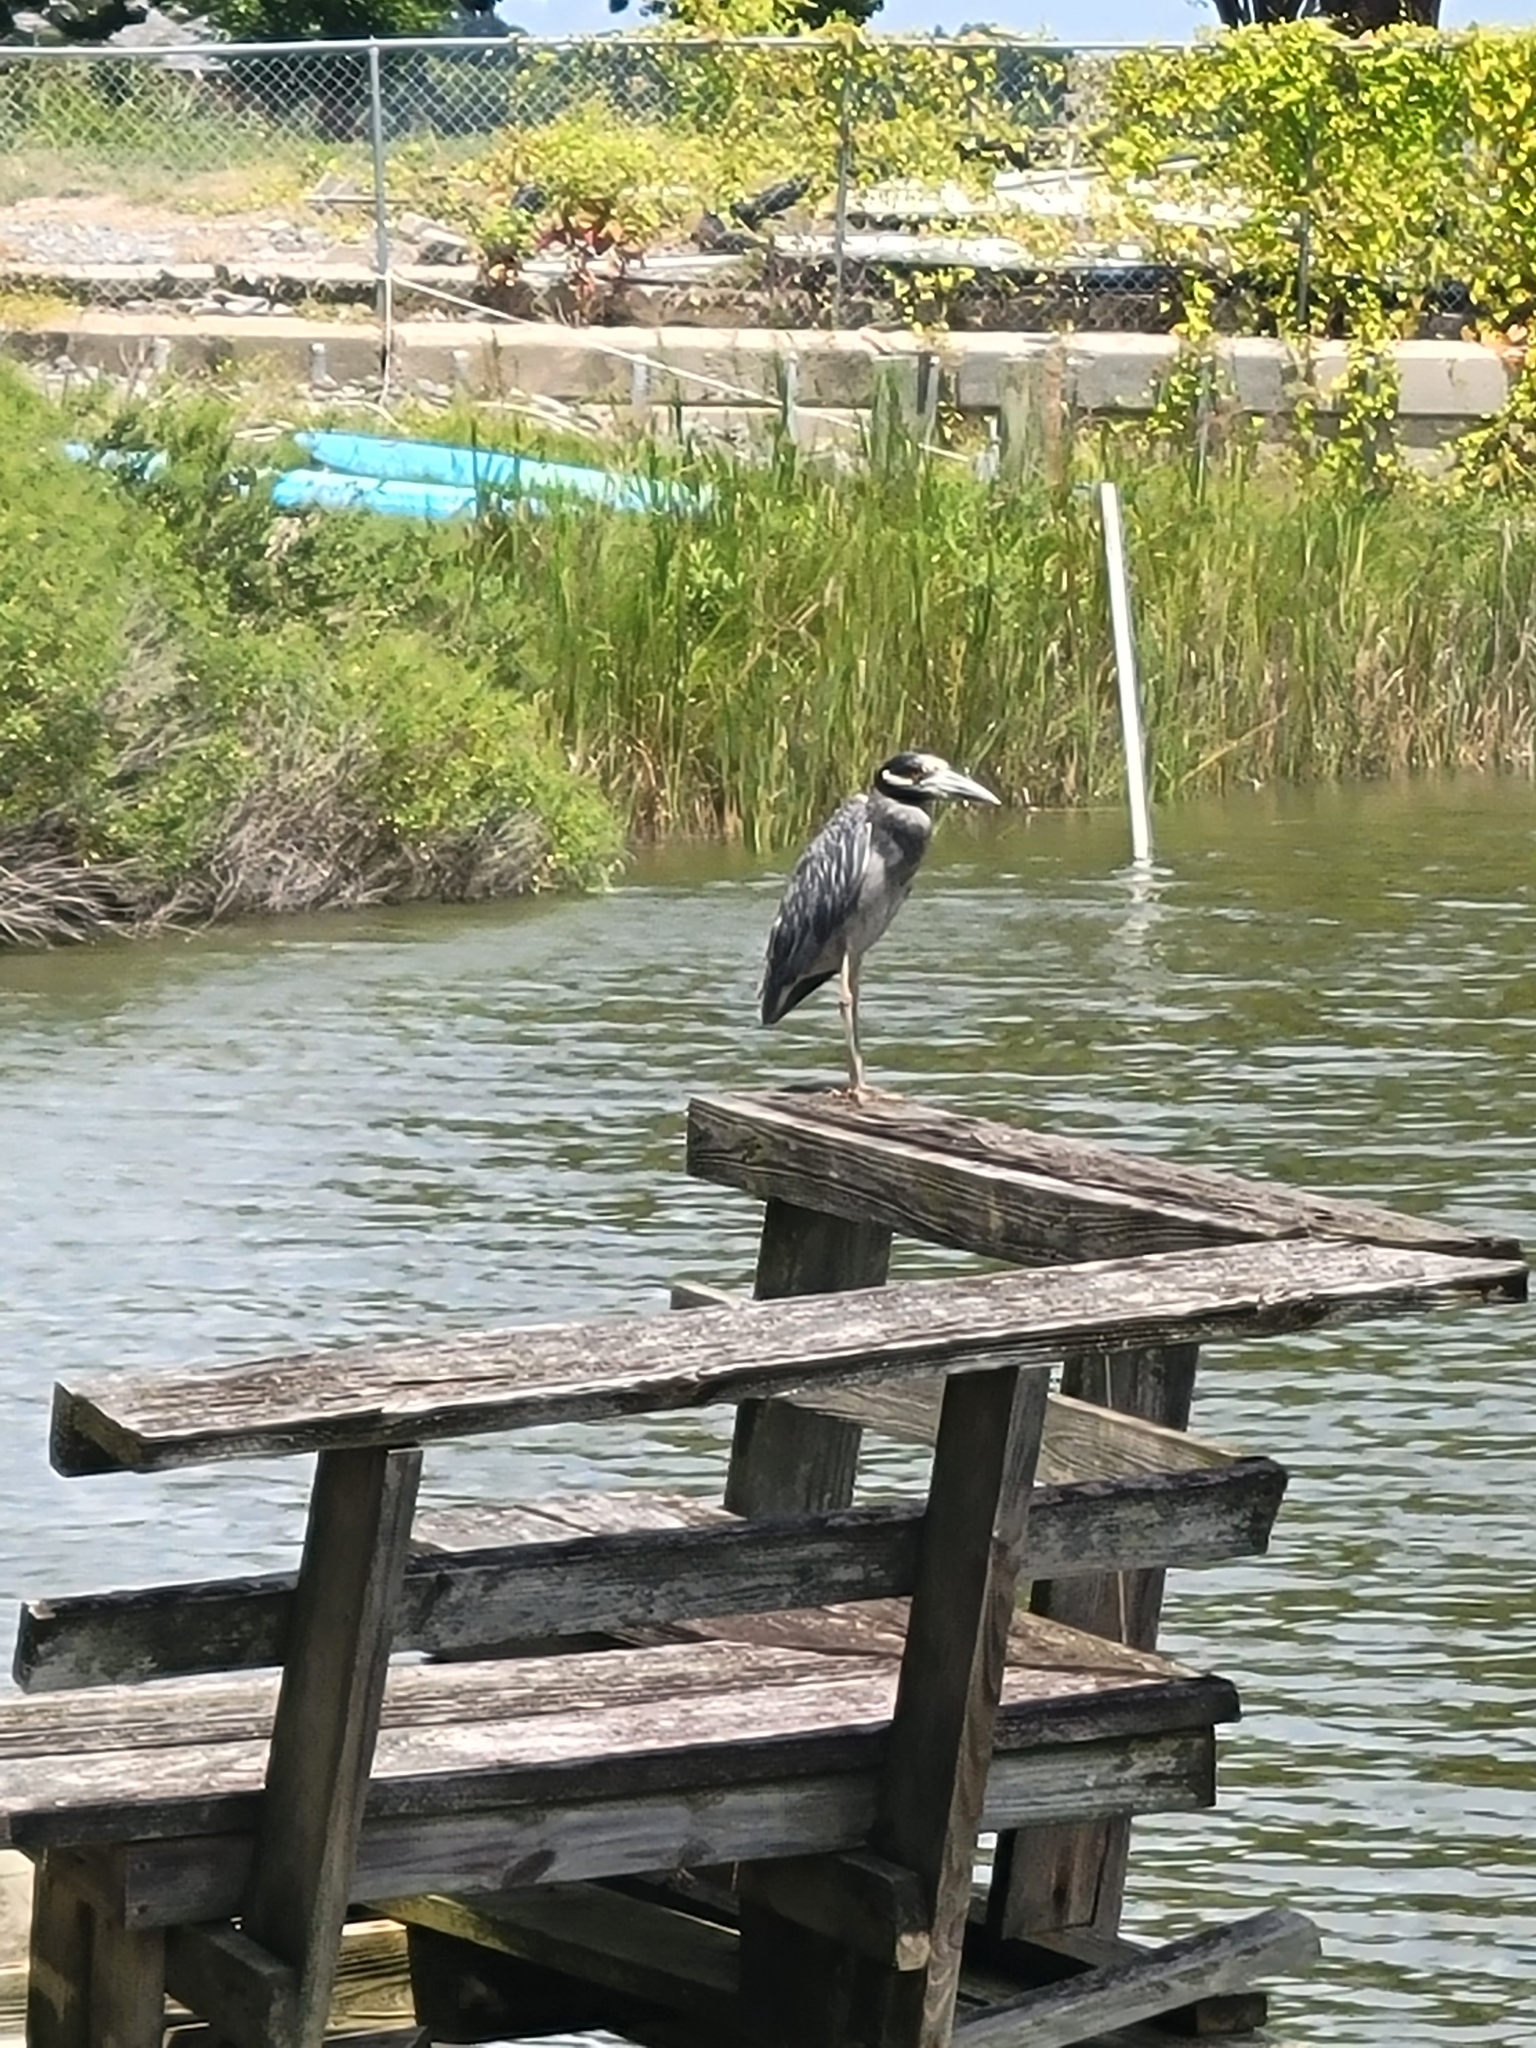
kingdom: Animalia
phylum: Chordata
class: Aves
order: Pelecaniformes
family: Ardeidae
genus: Nyctanassa
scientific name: Nyctanassa violacea
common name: Yellow-crowned night heron
